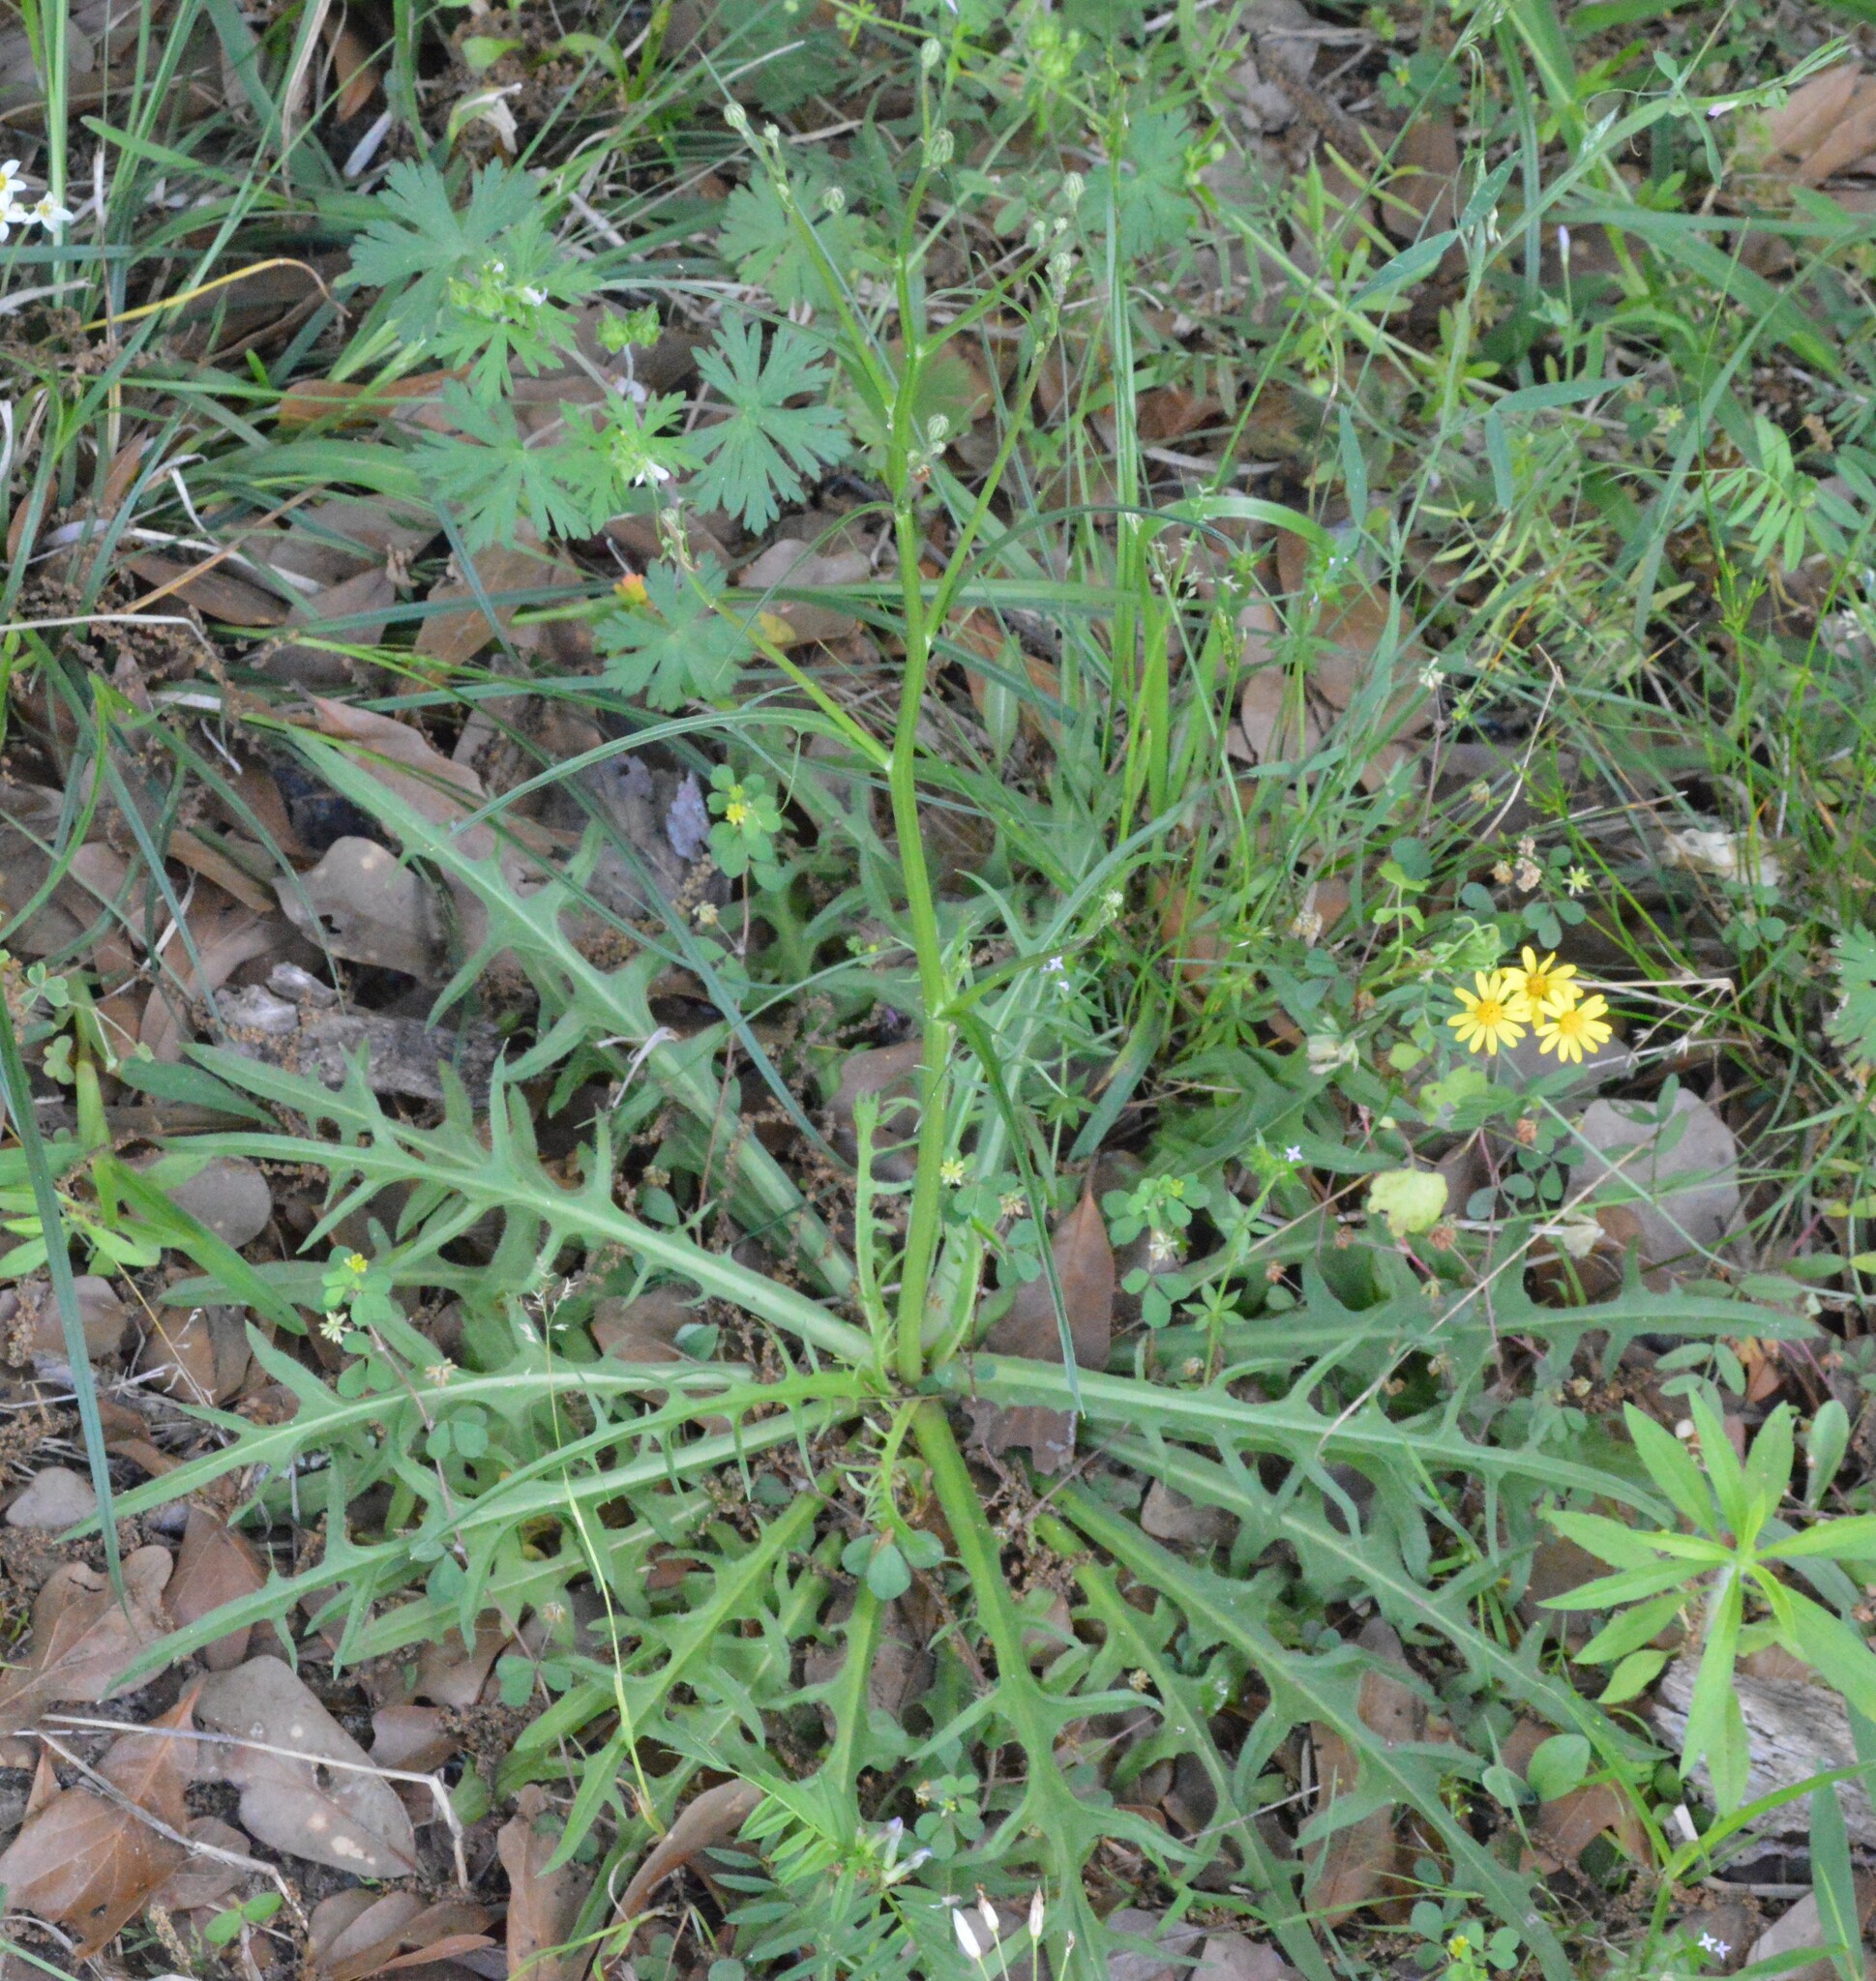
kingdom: Plantae
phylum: Tracheophyta
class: Magnoliopsida
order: Asterales
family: Asteraceae
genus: Hypochaeris
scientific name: Hypochaeris albiflora
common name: White flatweed
